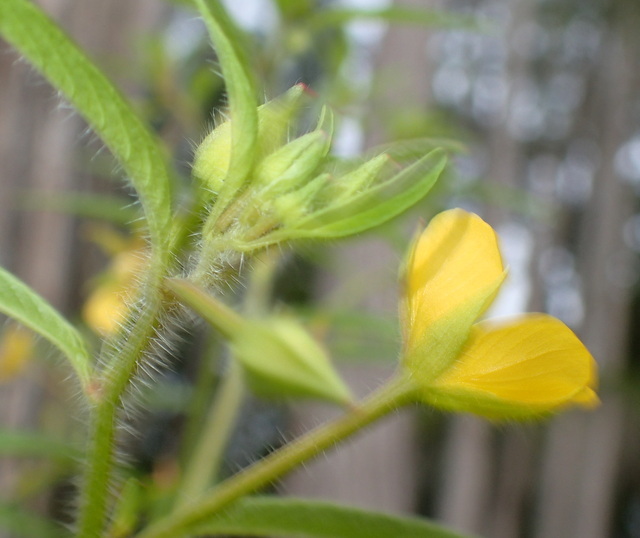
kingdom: Plantae
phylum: Tracheophyta
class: Magnoliopsida
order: Myrtales
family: Onagraceae
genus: Ludwigia
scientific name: Ludwigia leptocarpa
